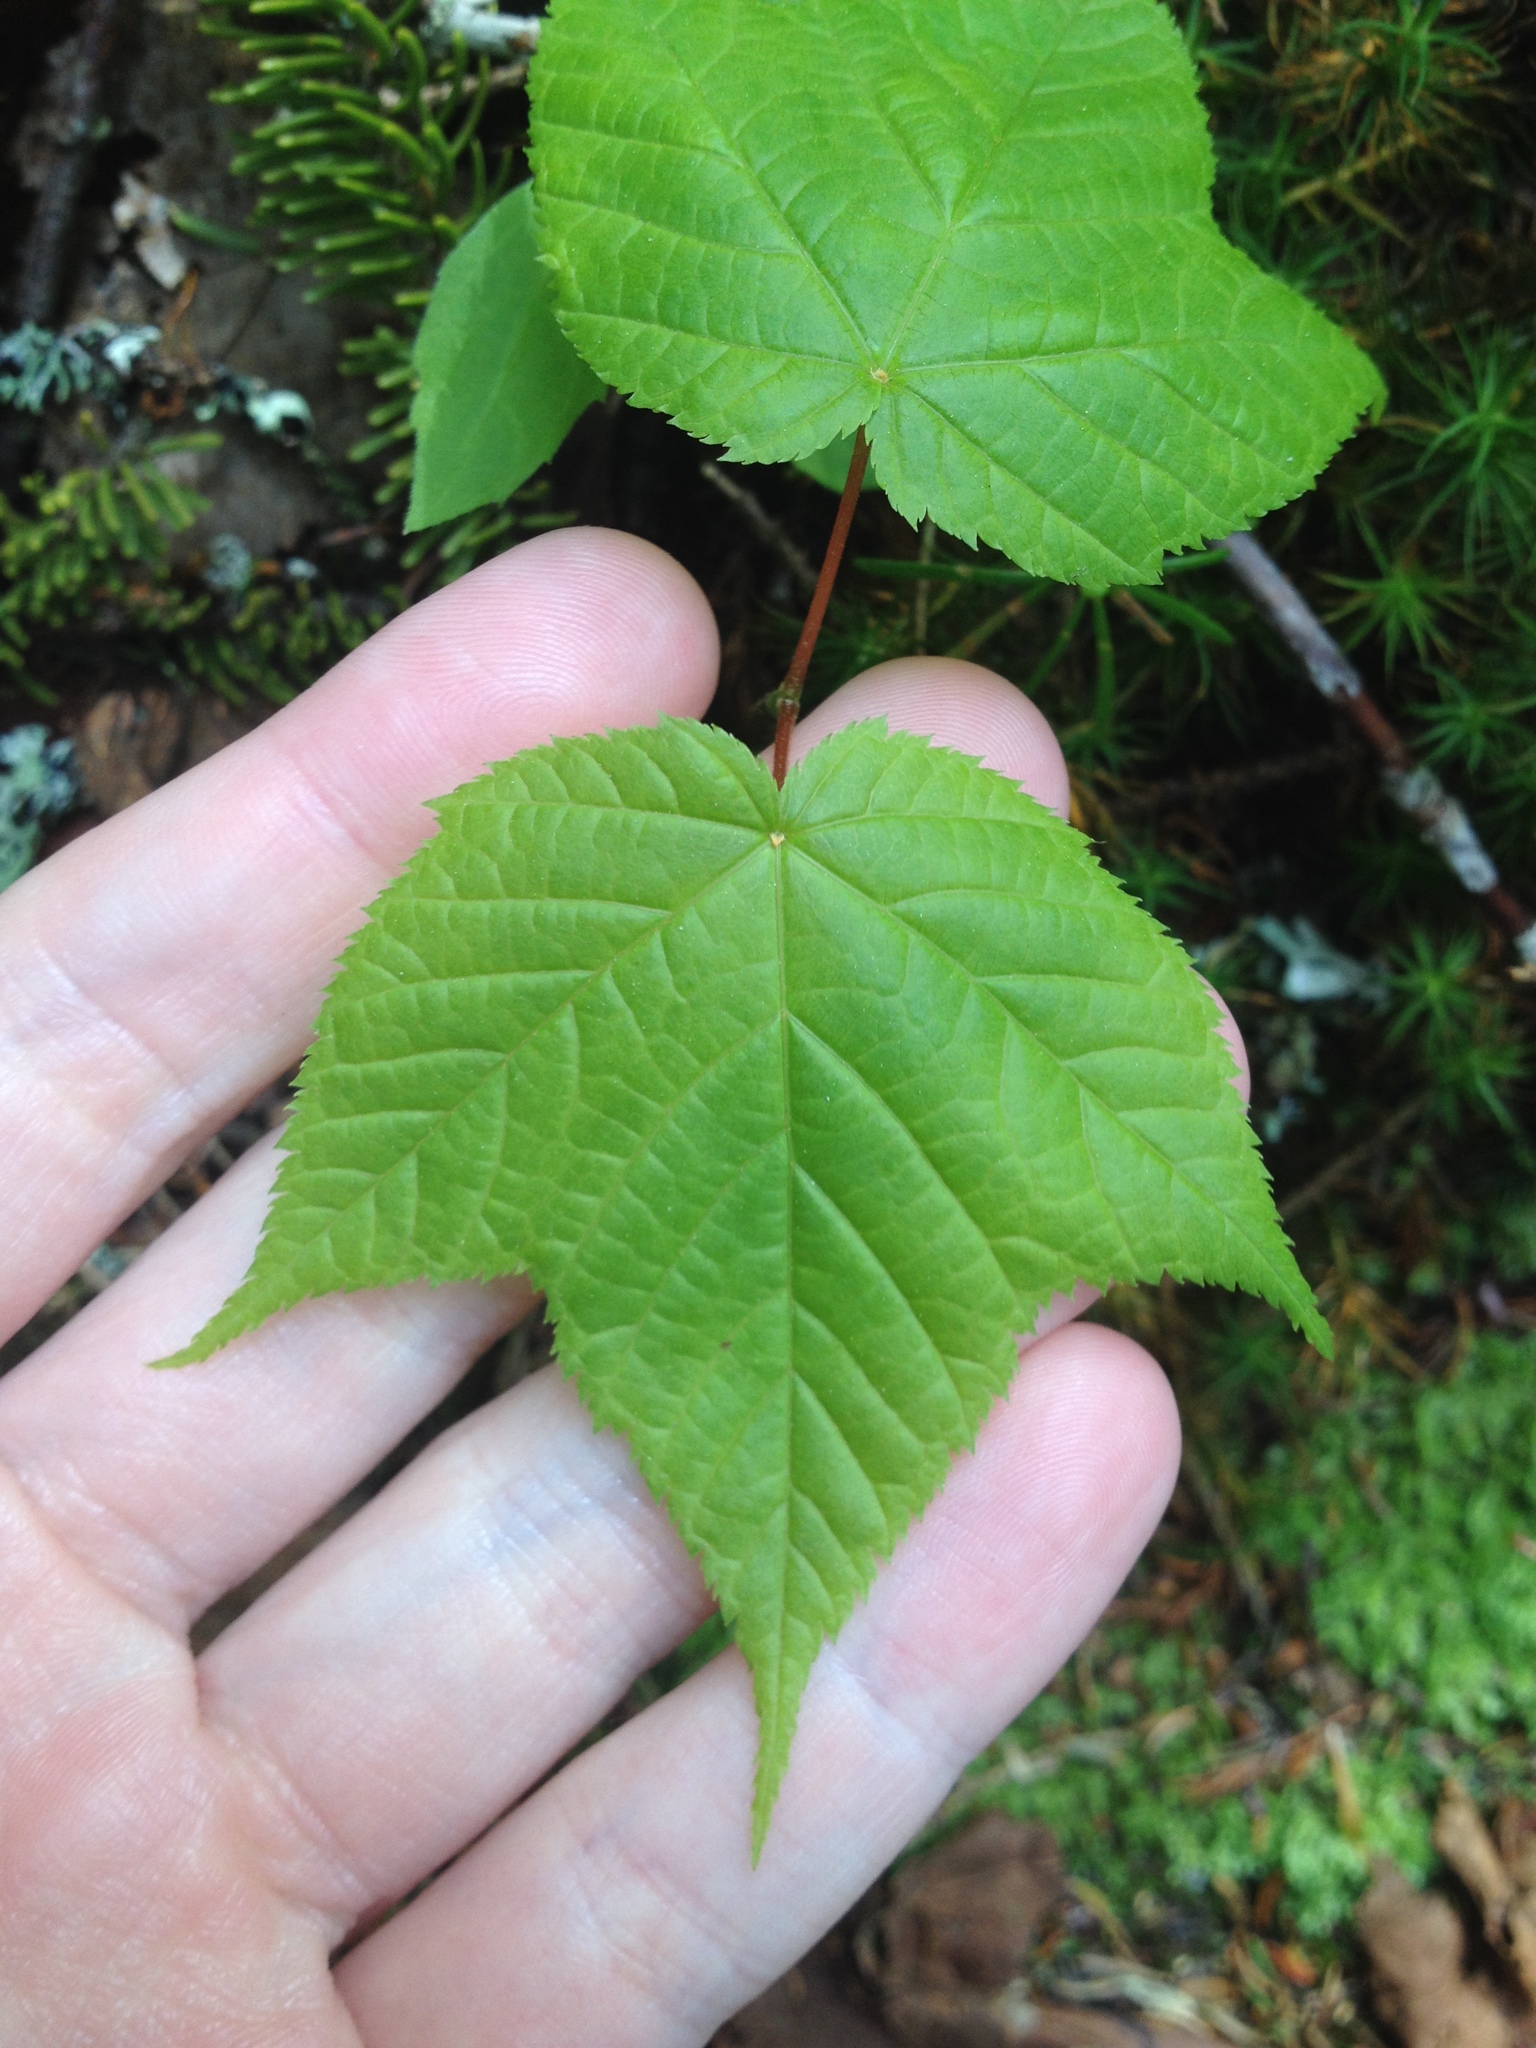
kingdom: Plantae
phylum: Tracheophyta
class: Magnoliopsida
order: Sapindales
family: Sapindaceae
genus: Acer
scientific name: Acer pensylvanicum
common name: Moosewood
